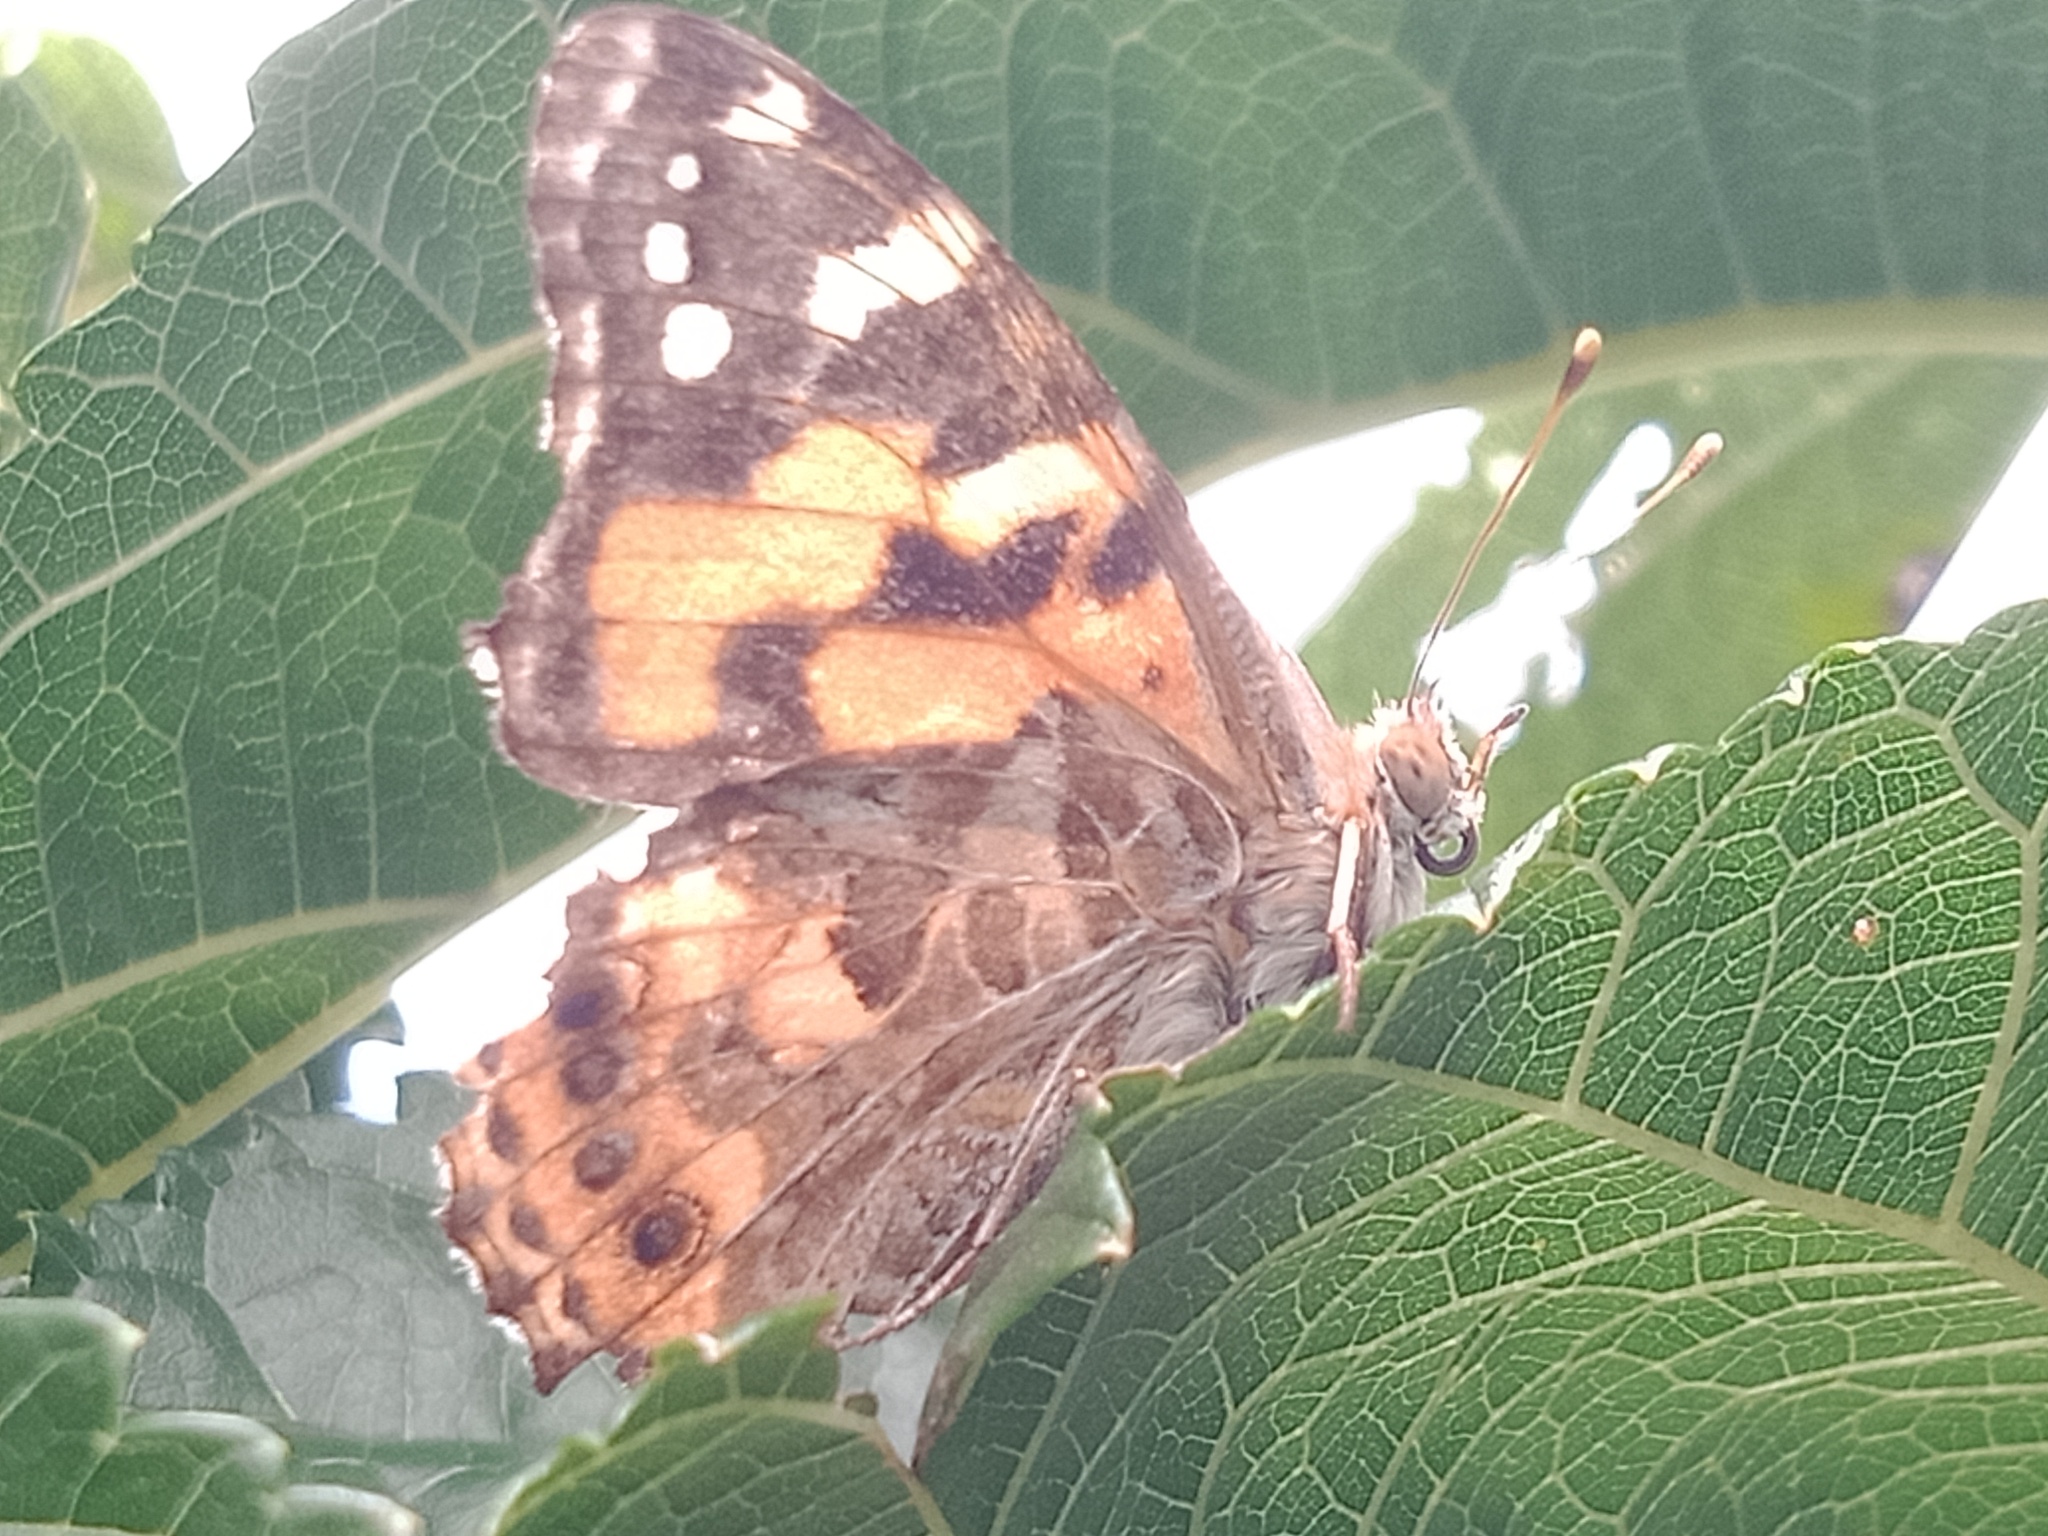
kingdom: Animalia
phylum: Arthropoda
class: Insecta
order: Lepidoptera
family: Nymphalidae
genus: Vanessa
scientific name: Vanessa kershawi
